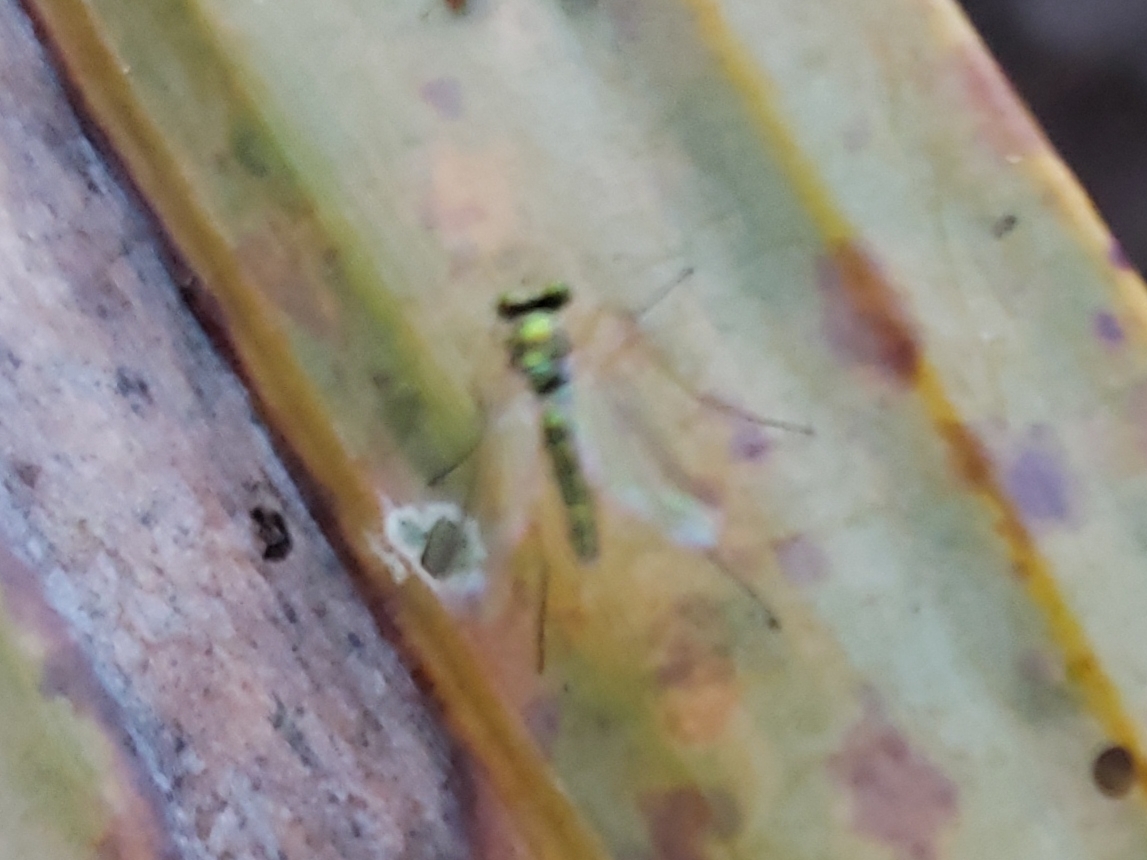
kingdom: Animalia
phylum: Arthropoda
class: Insecta
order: Diptera
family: Dolichopodidae
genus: Amblypsilopus
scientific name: Amblypsilopus psittacinus
